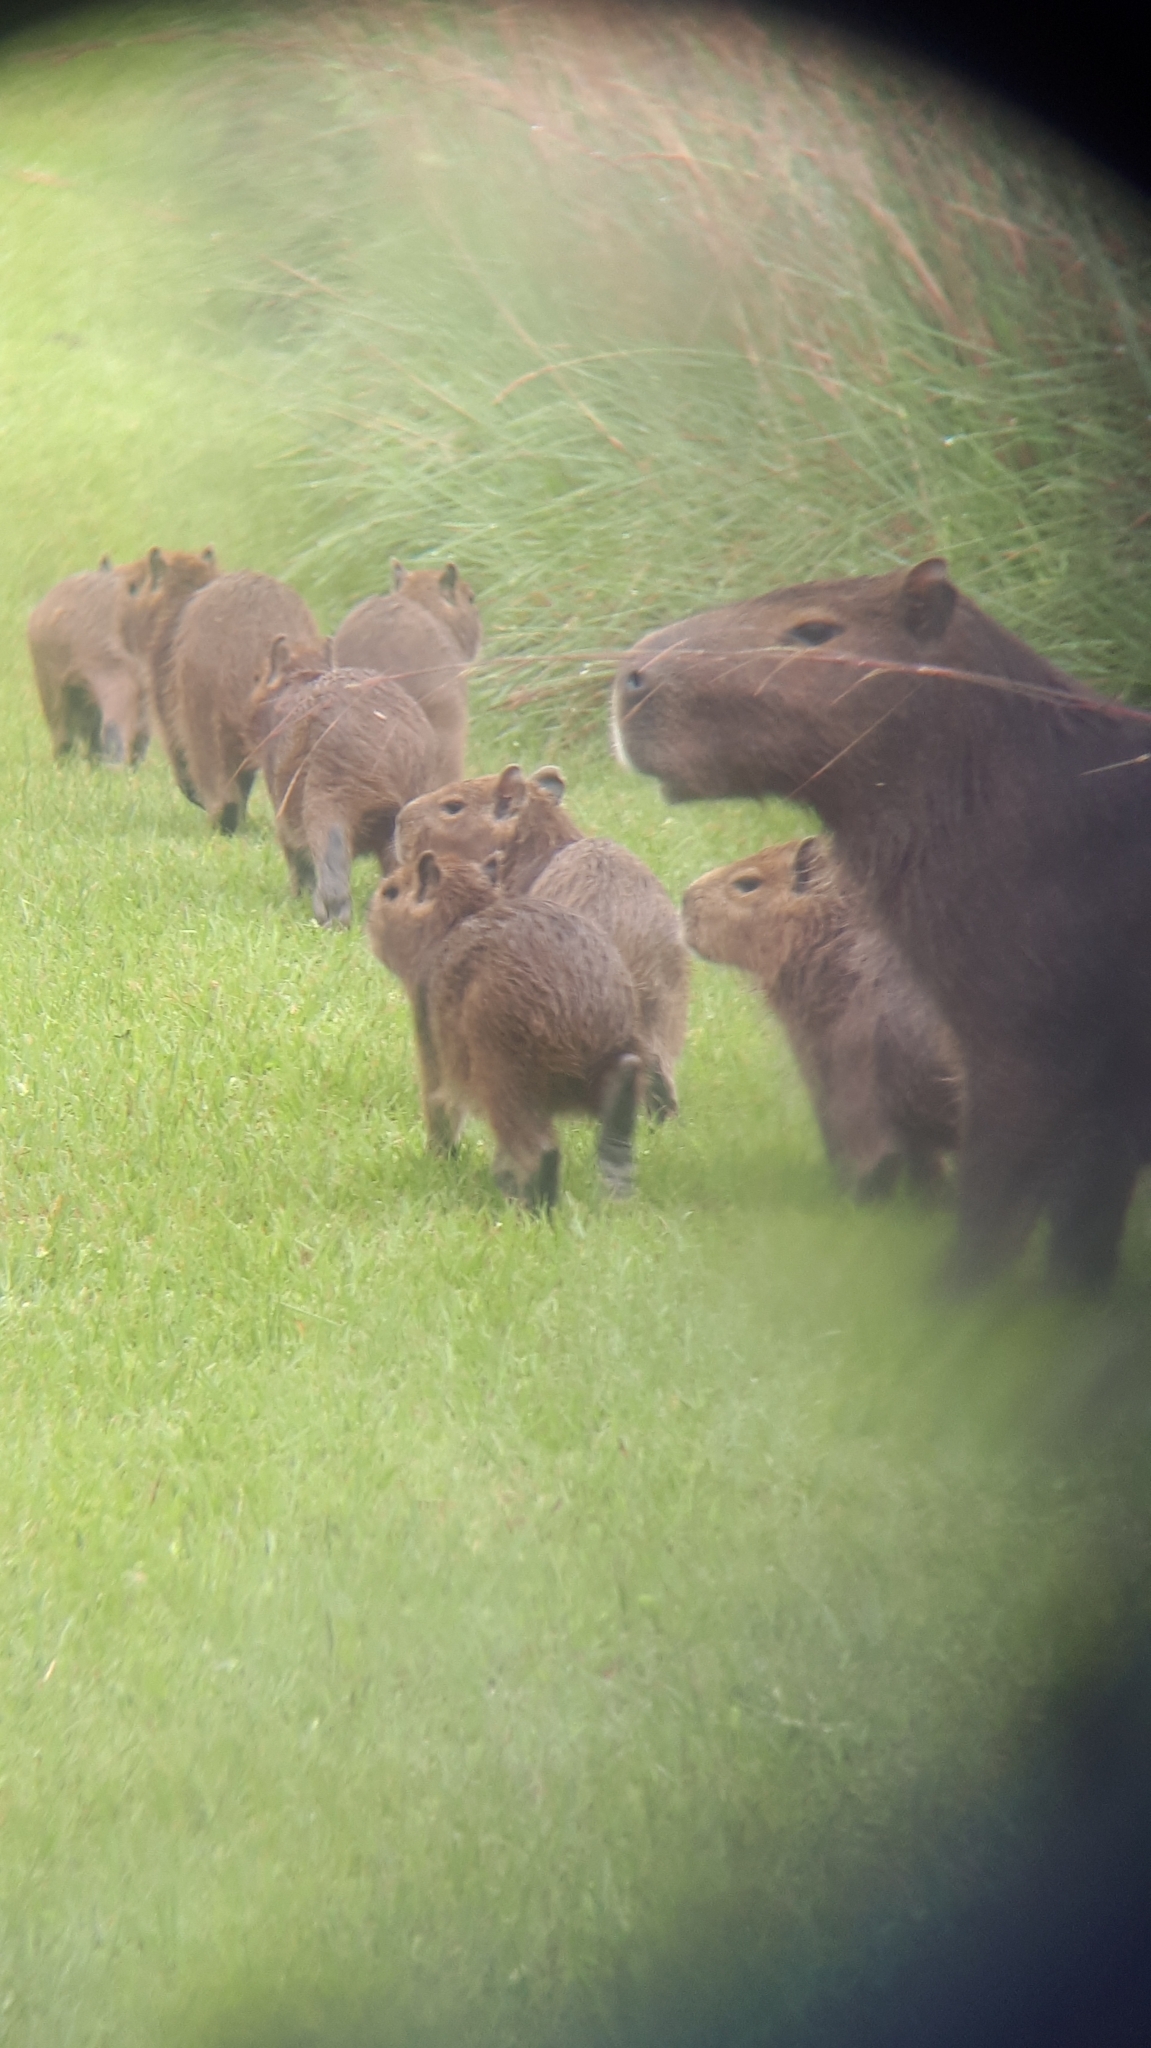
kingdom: Animalia
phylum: Chordata
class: Mammalia
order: Rodentia
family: Caviidae
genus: Hydrochoerus
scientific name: Hydrochoerus hydrochaeris
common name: Capybara
